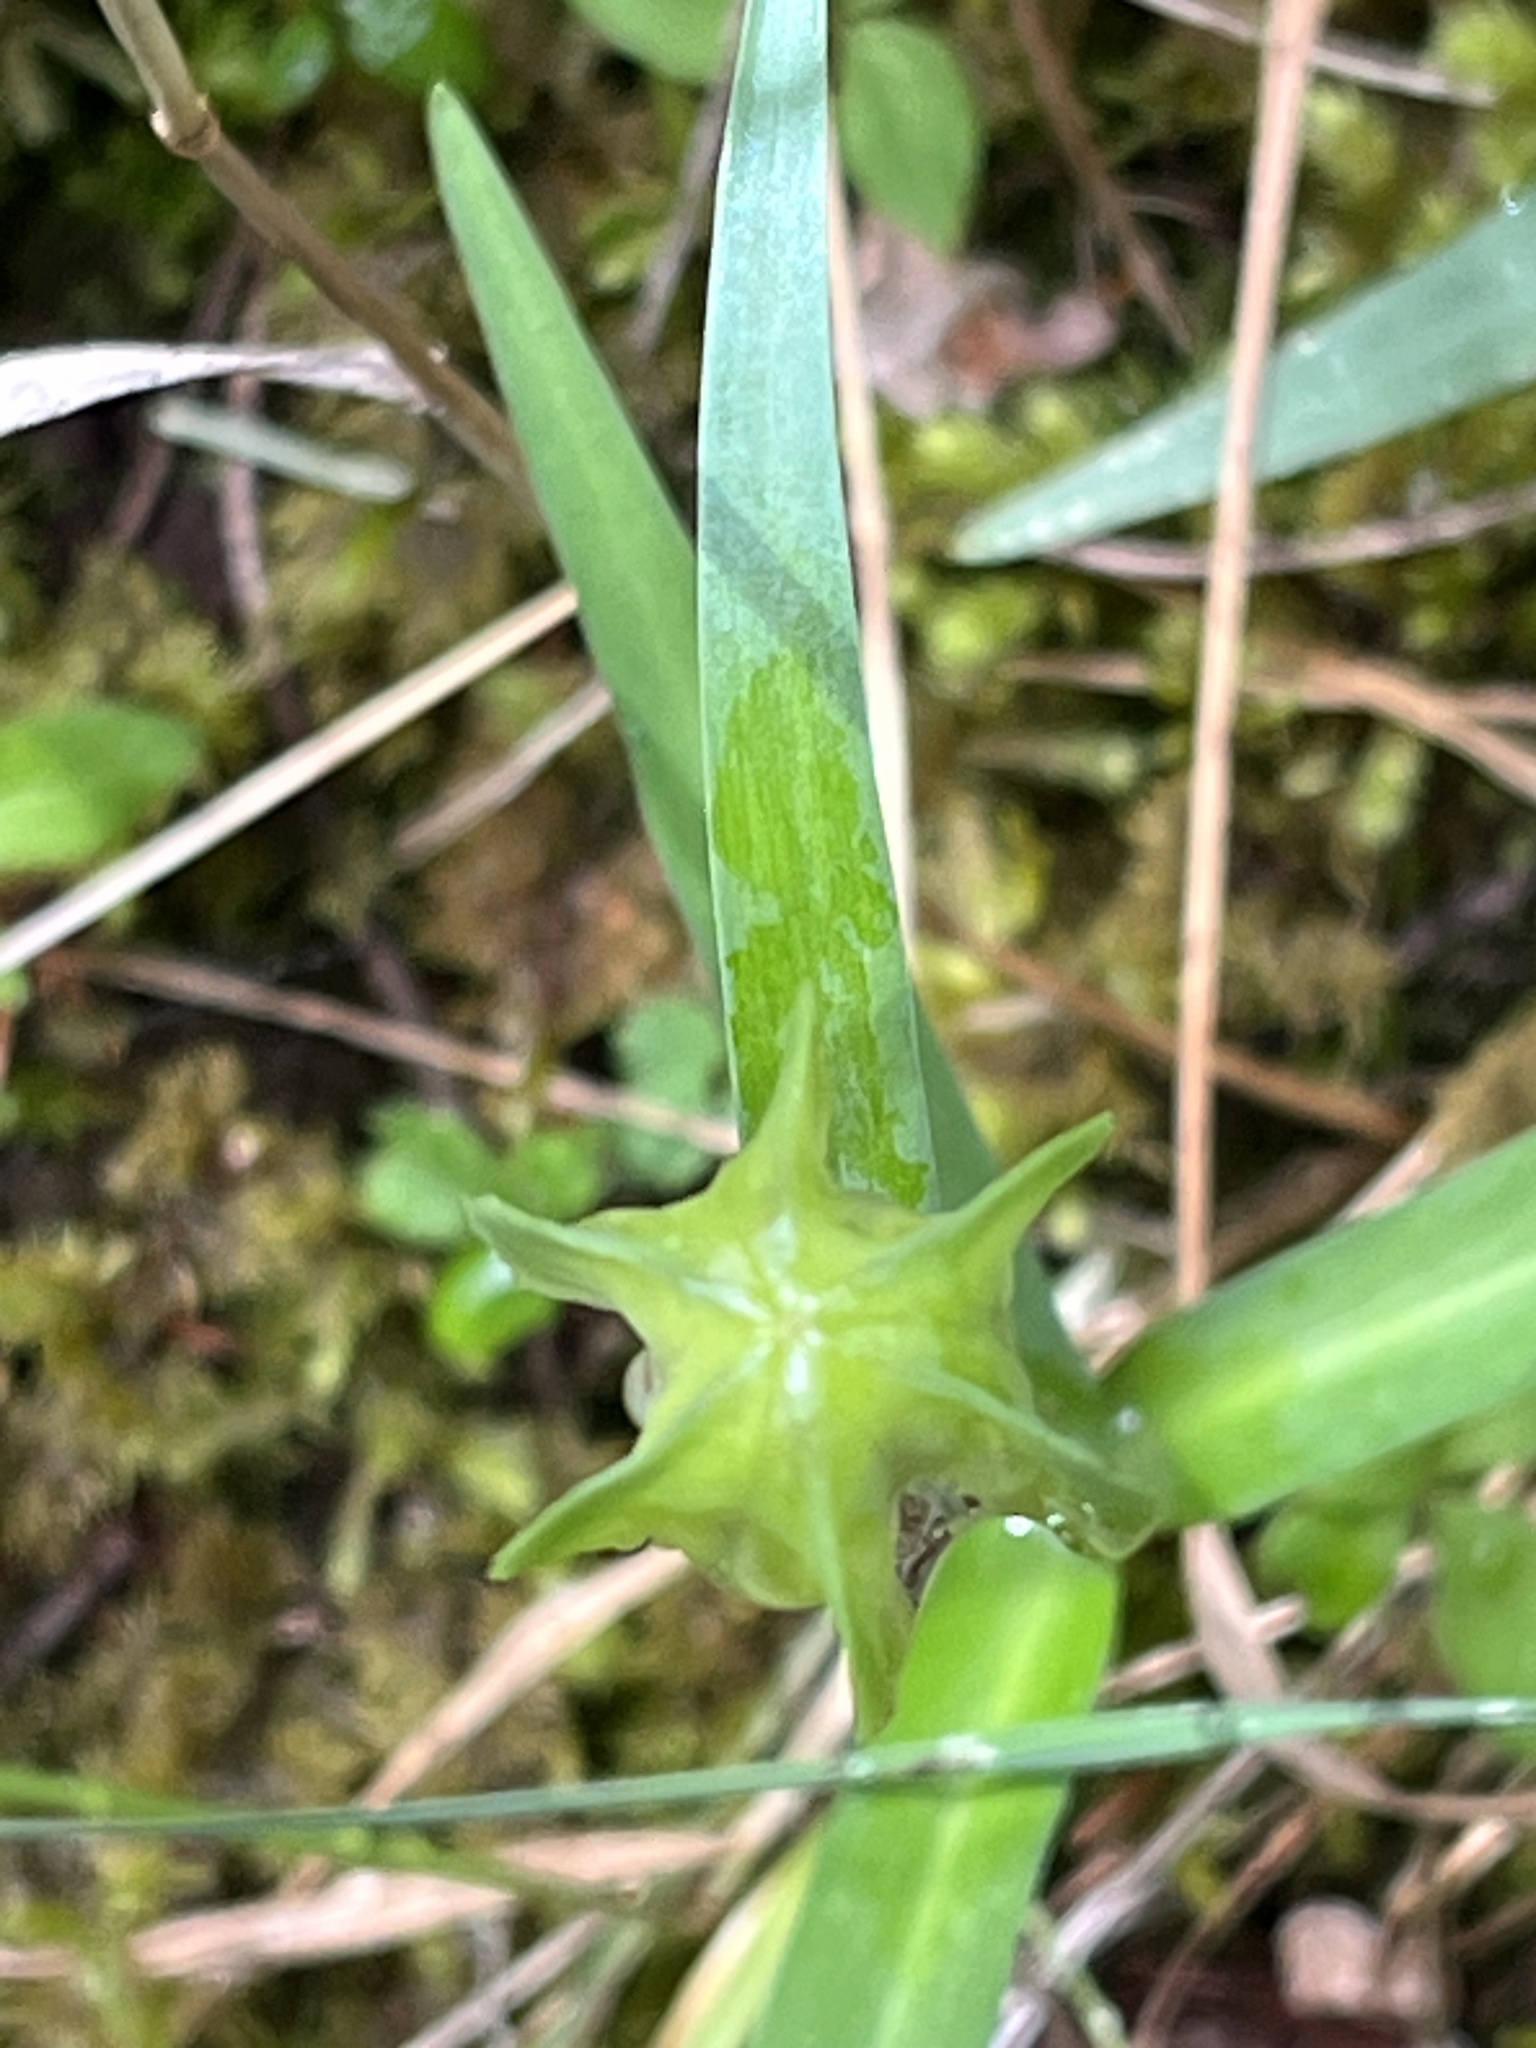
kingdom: Plantae
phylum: Tracheophyta
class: Liliopsida
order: Liliales
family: Liliaceae
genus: Fritillaria
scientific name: Fritillaria affinis
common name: Ojai fritillary
